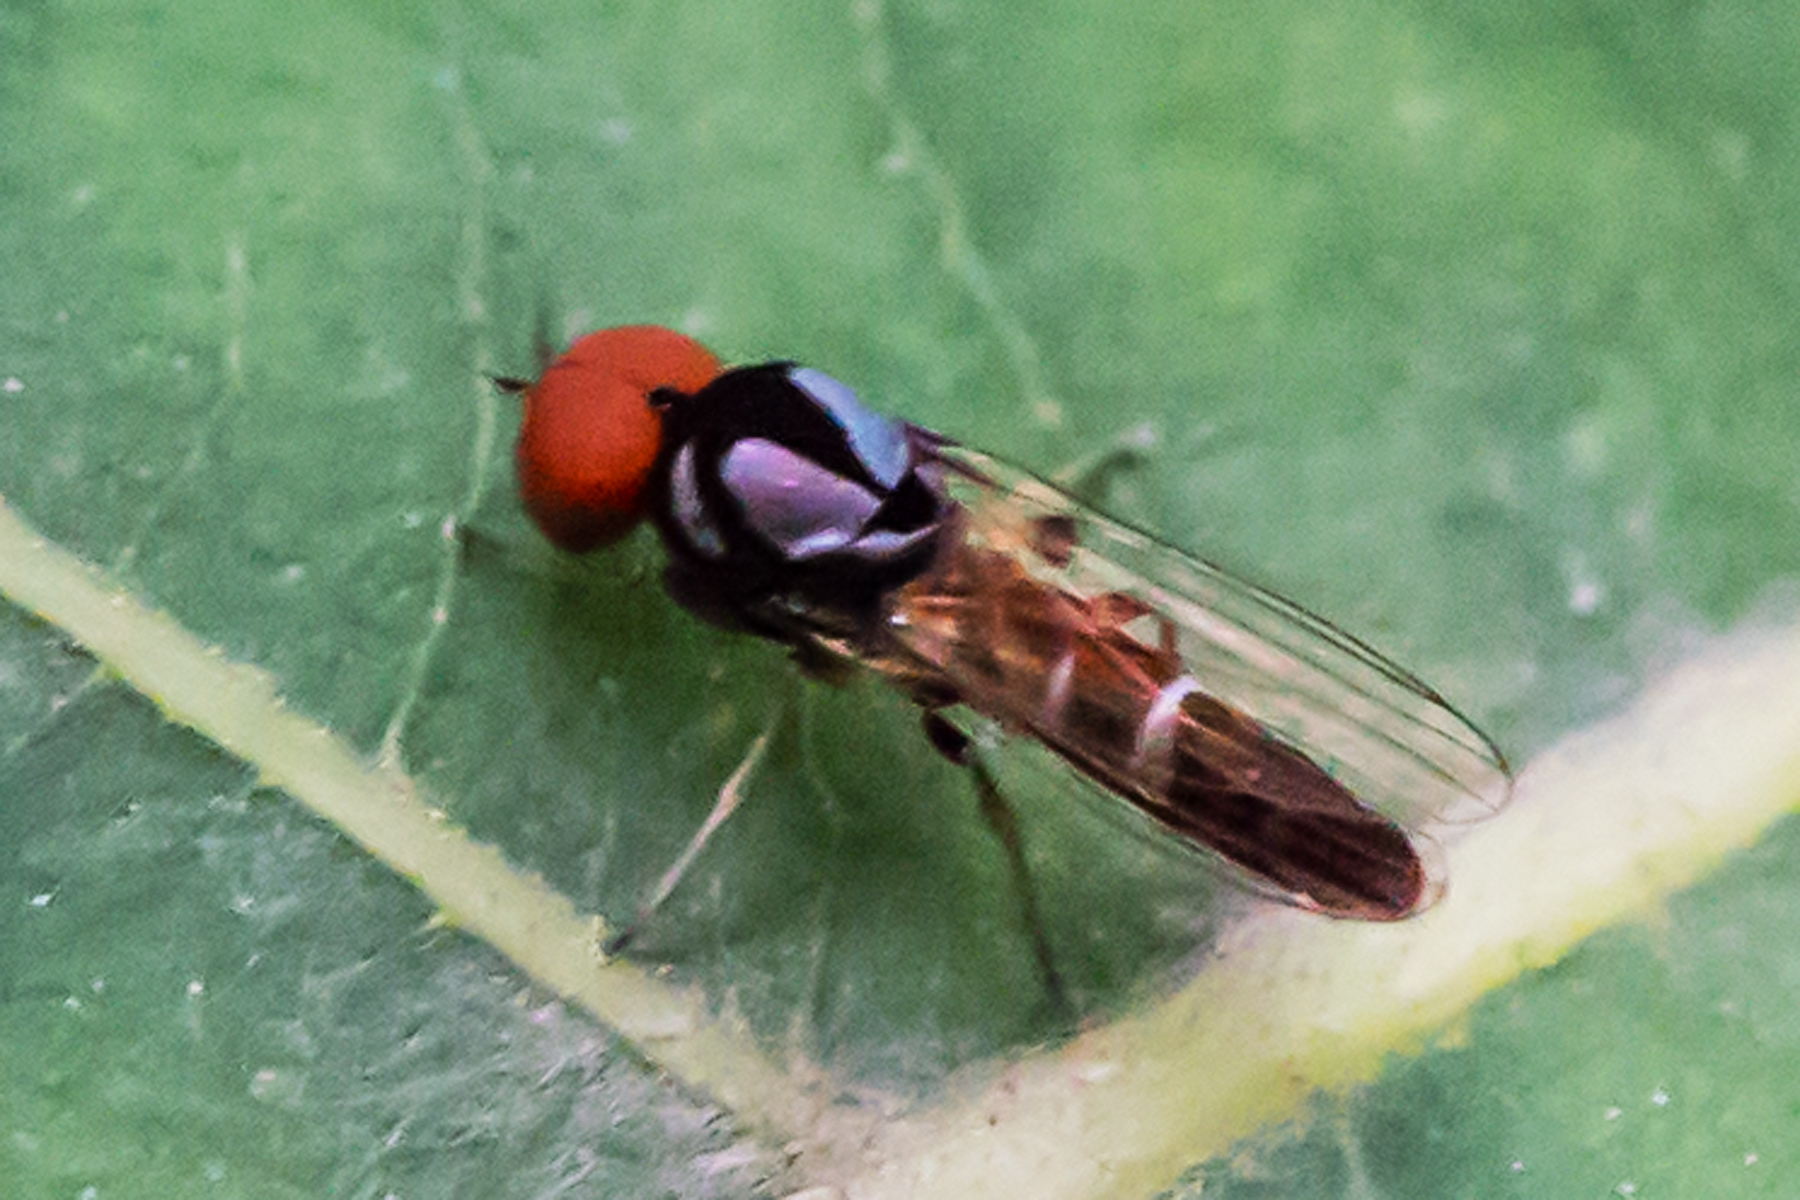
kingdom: Animalia
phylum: Arthropoda
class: Insecta
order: Diptera
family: Platypezidae
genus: Bertamyia
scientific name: Bertamyia notata
